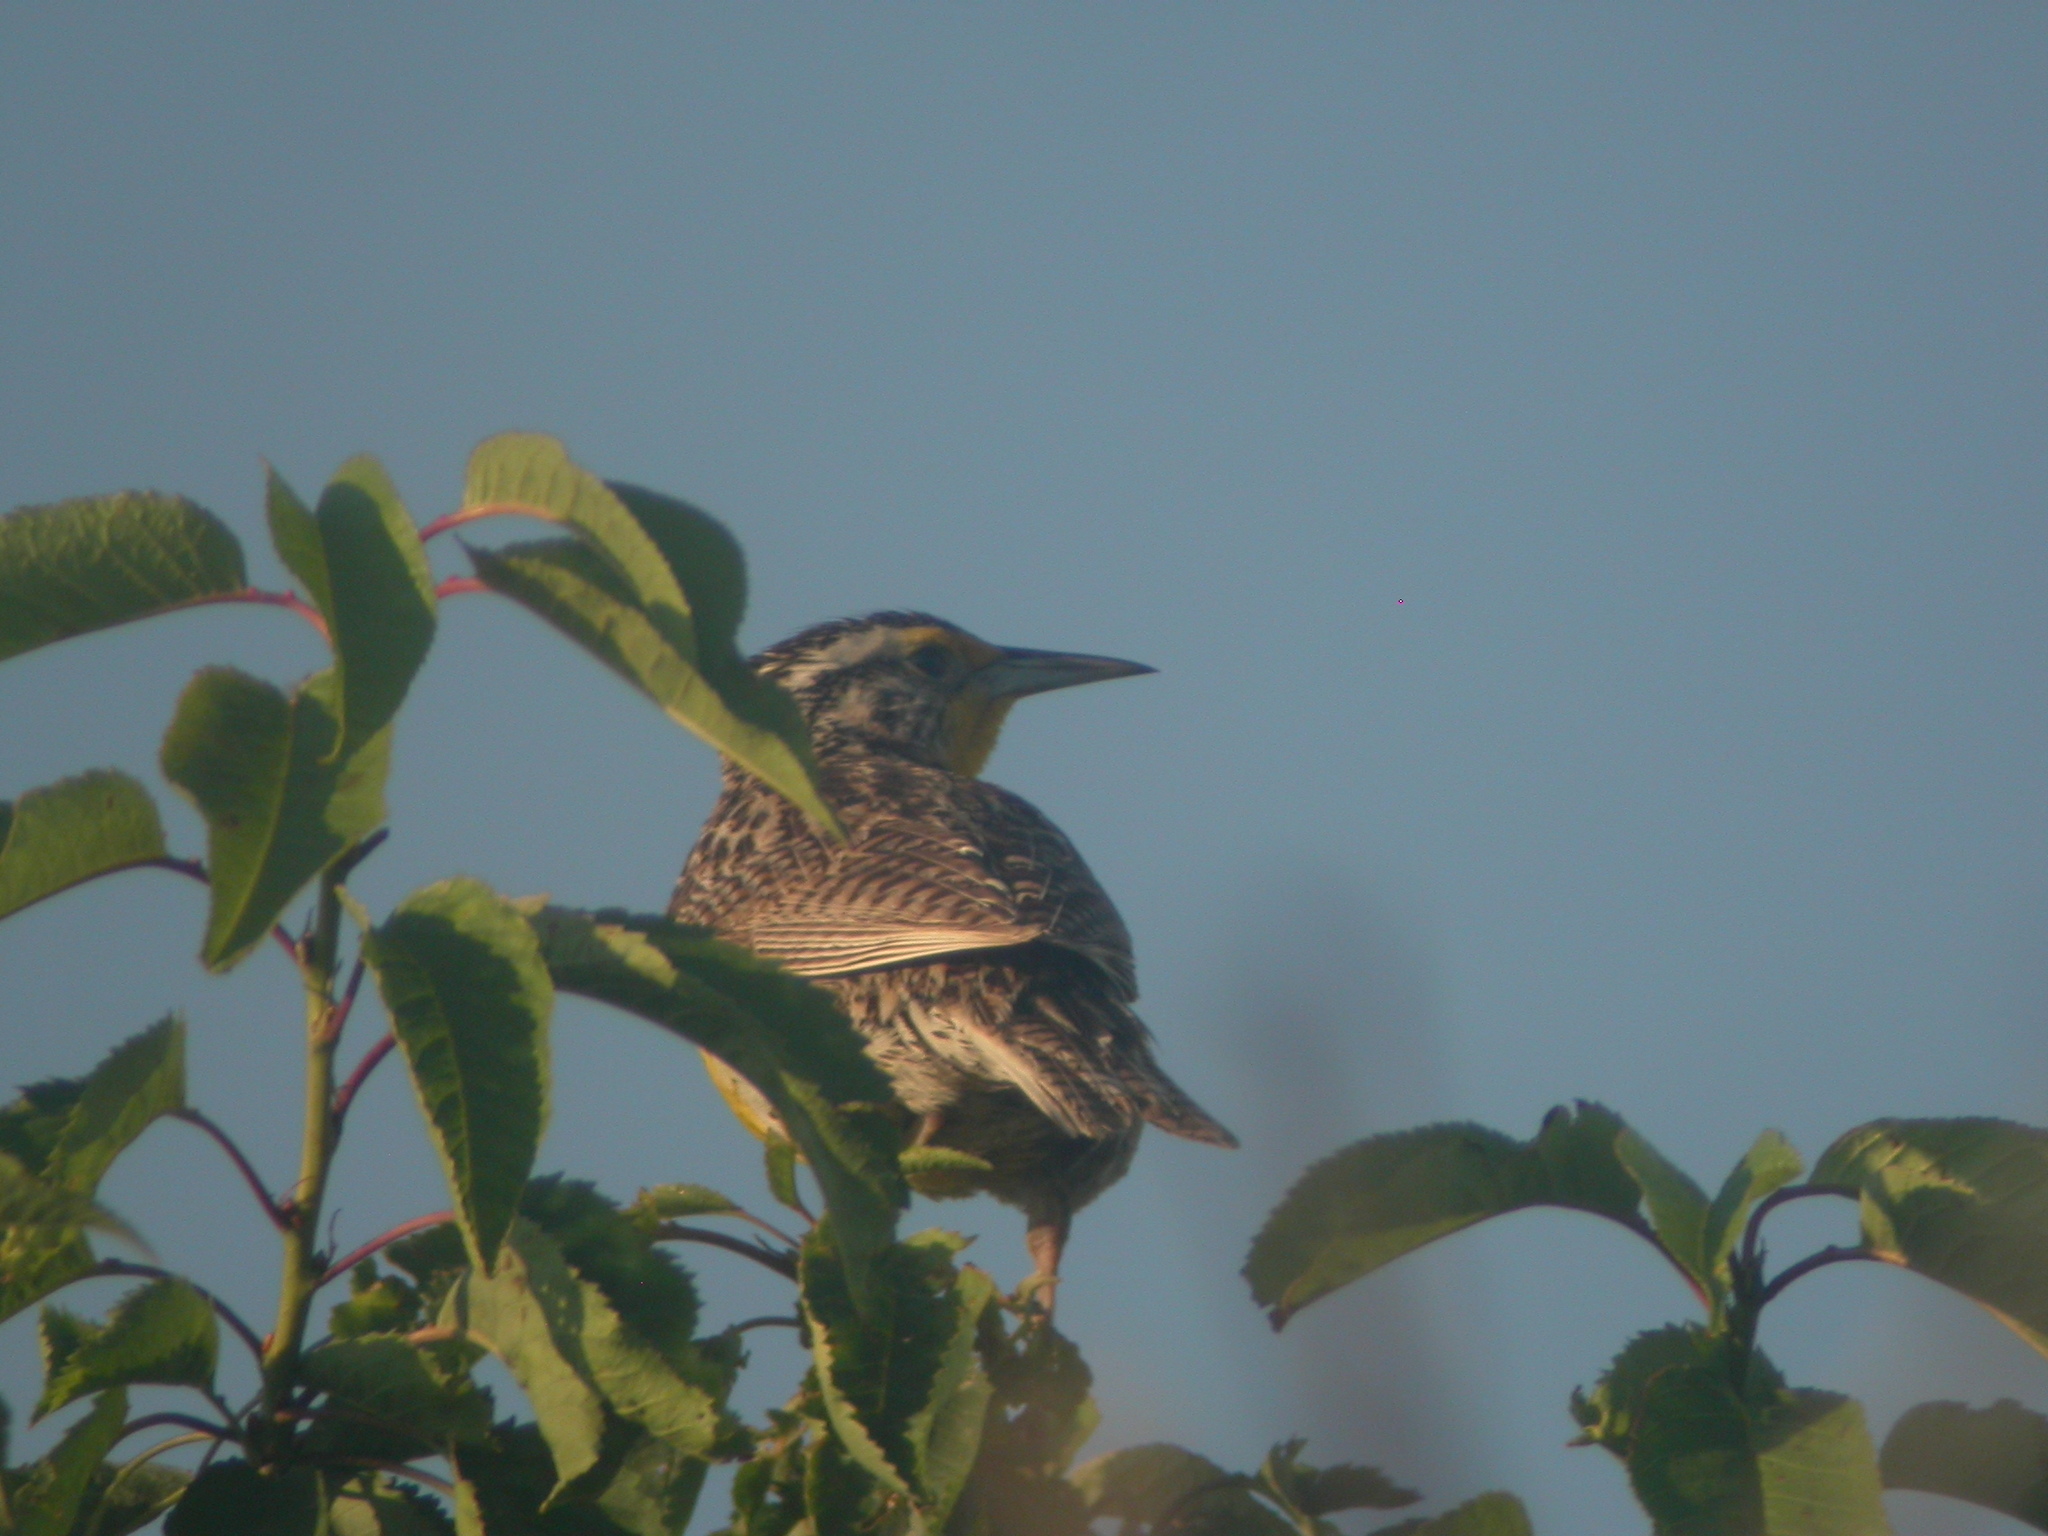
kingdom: Animalia
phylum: Chordata
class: Aves
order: Passeriformes
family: Icteridae
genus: Sturnella
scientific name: Sturnella neglecta
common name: Western meadowlark
